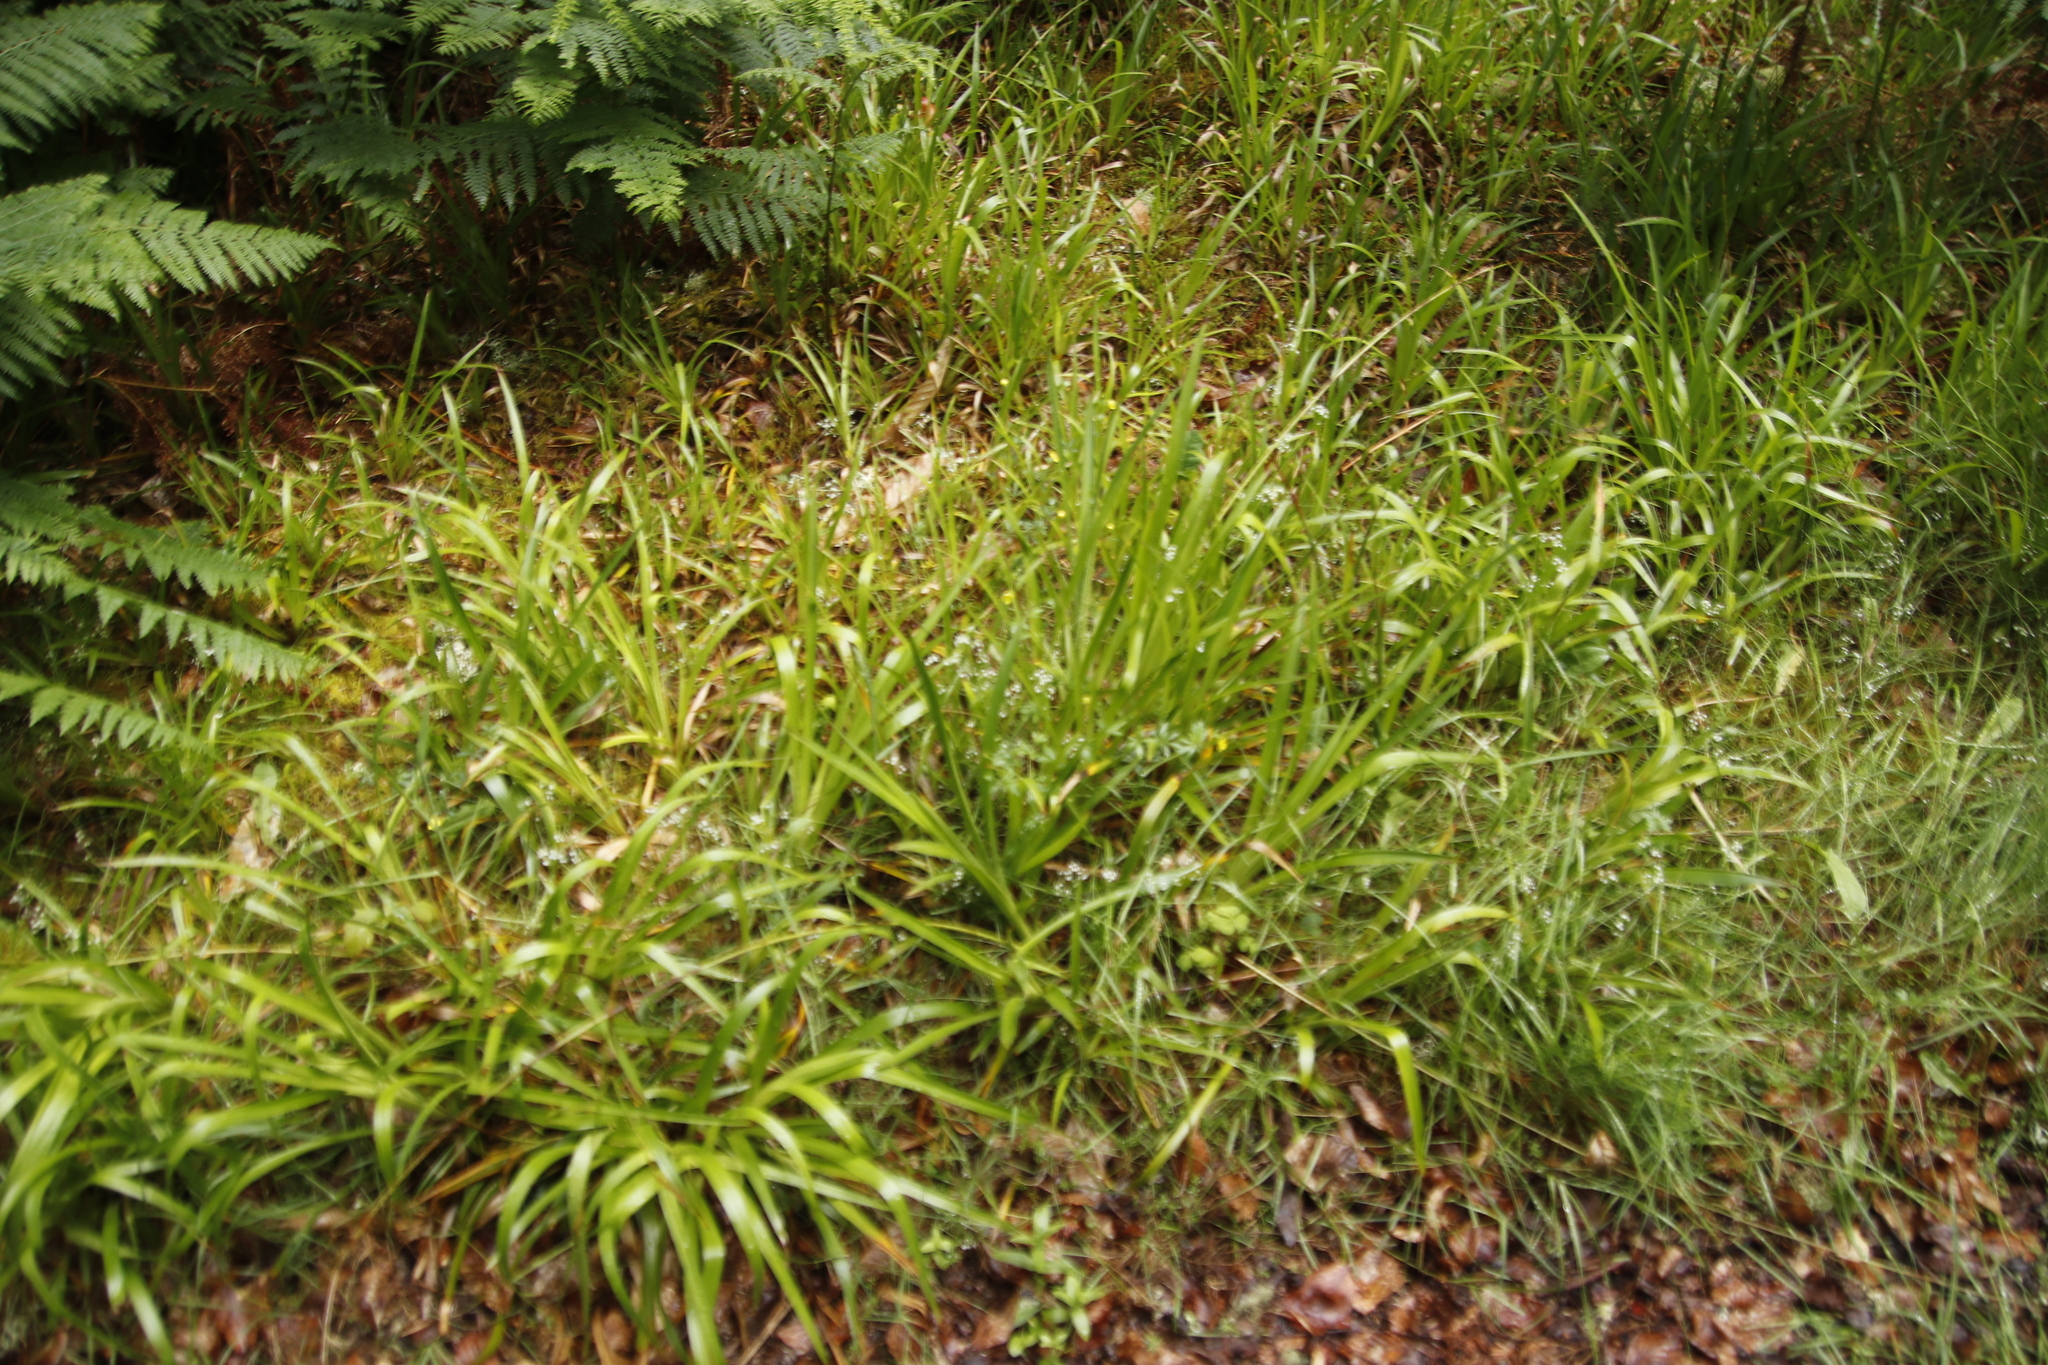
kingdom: Plantae
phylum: Tracheophyta
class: Liliopsida
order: Poales
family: Juncaceae
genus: Luzula
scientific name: Luzula sylvatica
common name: Great wood-rush
